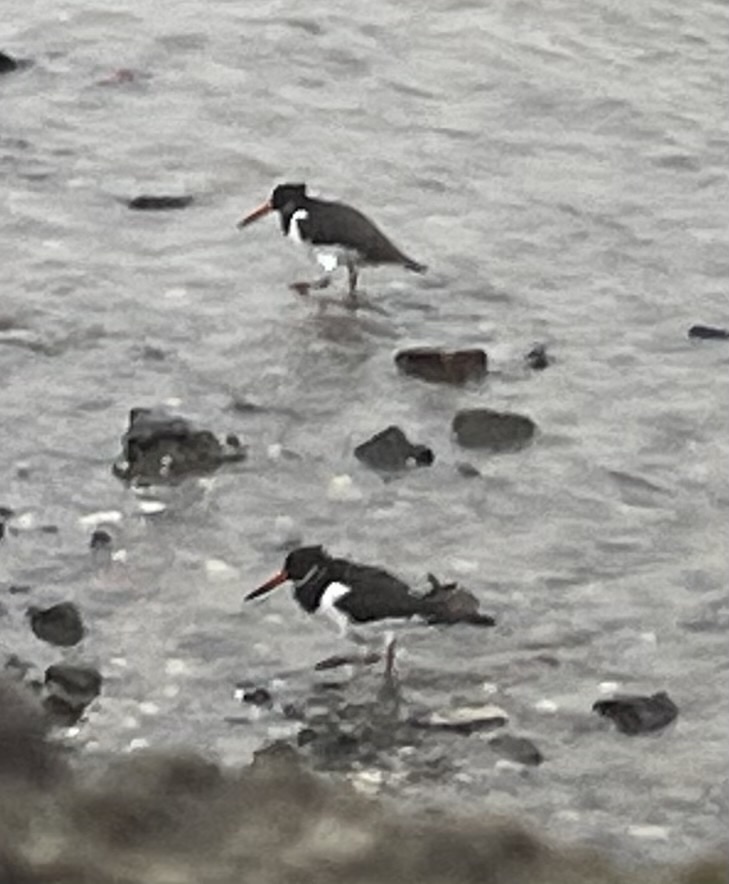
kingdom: Animalia
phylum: Chordata
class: Aves
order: Charadriiformes
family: Haematopodidae
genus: Haematopus
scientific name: Haematopus ostralegus
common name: Eurasian oystercatcher
